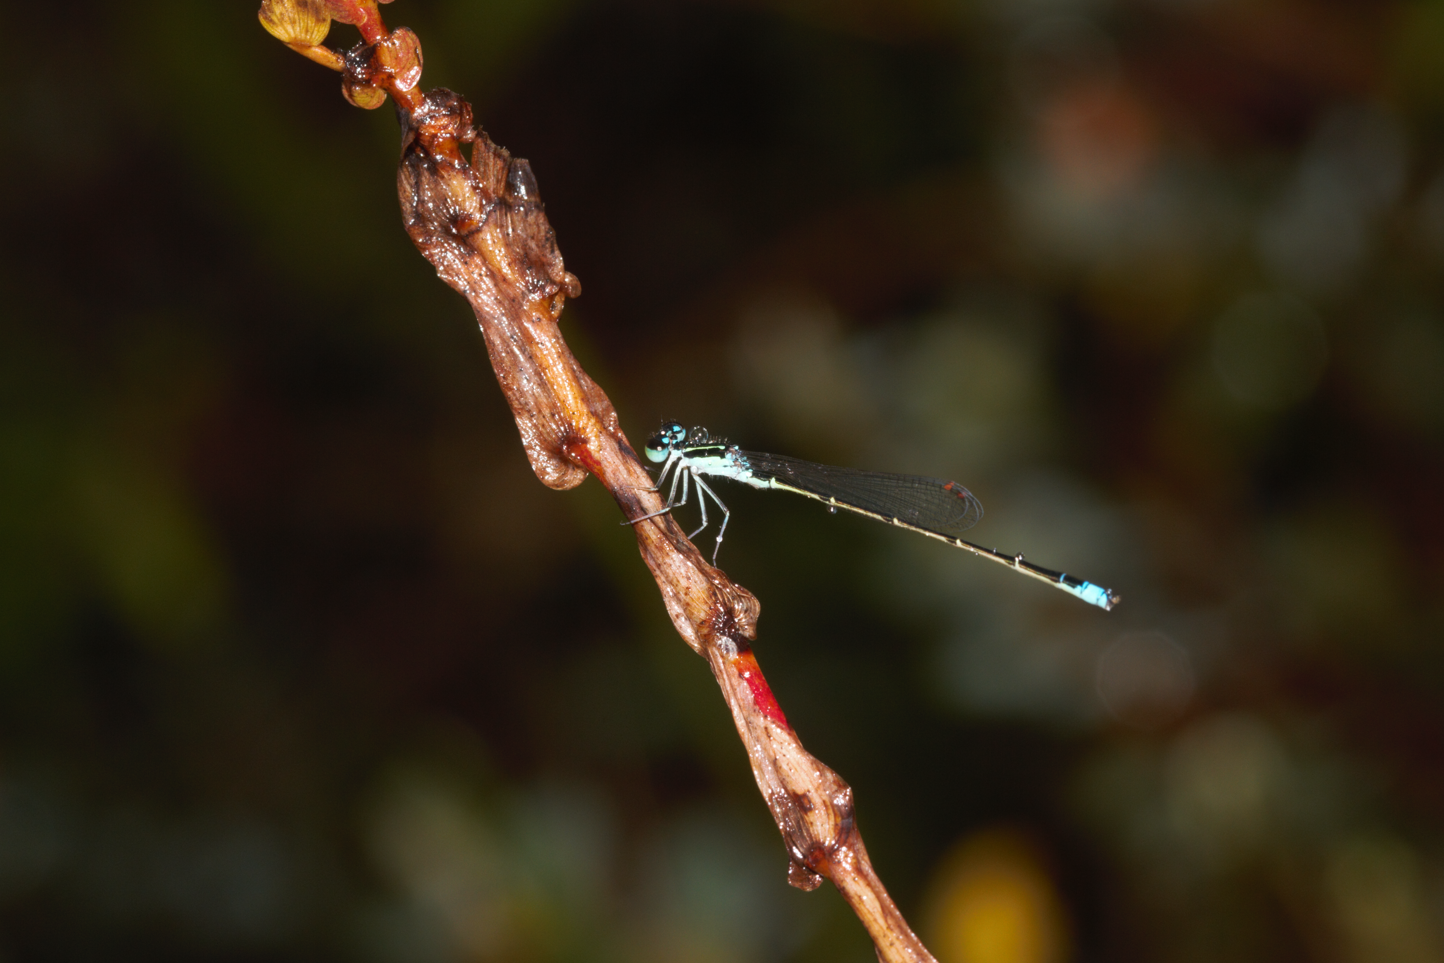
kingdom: Animalia
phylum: Arthropoda
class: Insecta
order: Odonata
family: Coenagrionidae
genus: Homeoura
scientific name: Homeoura obrieni
